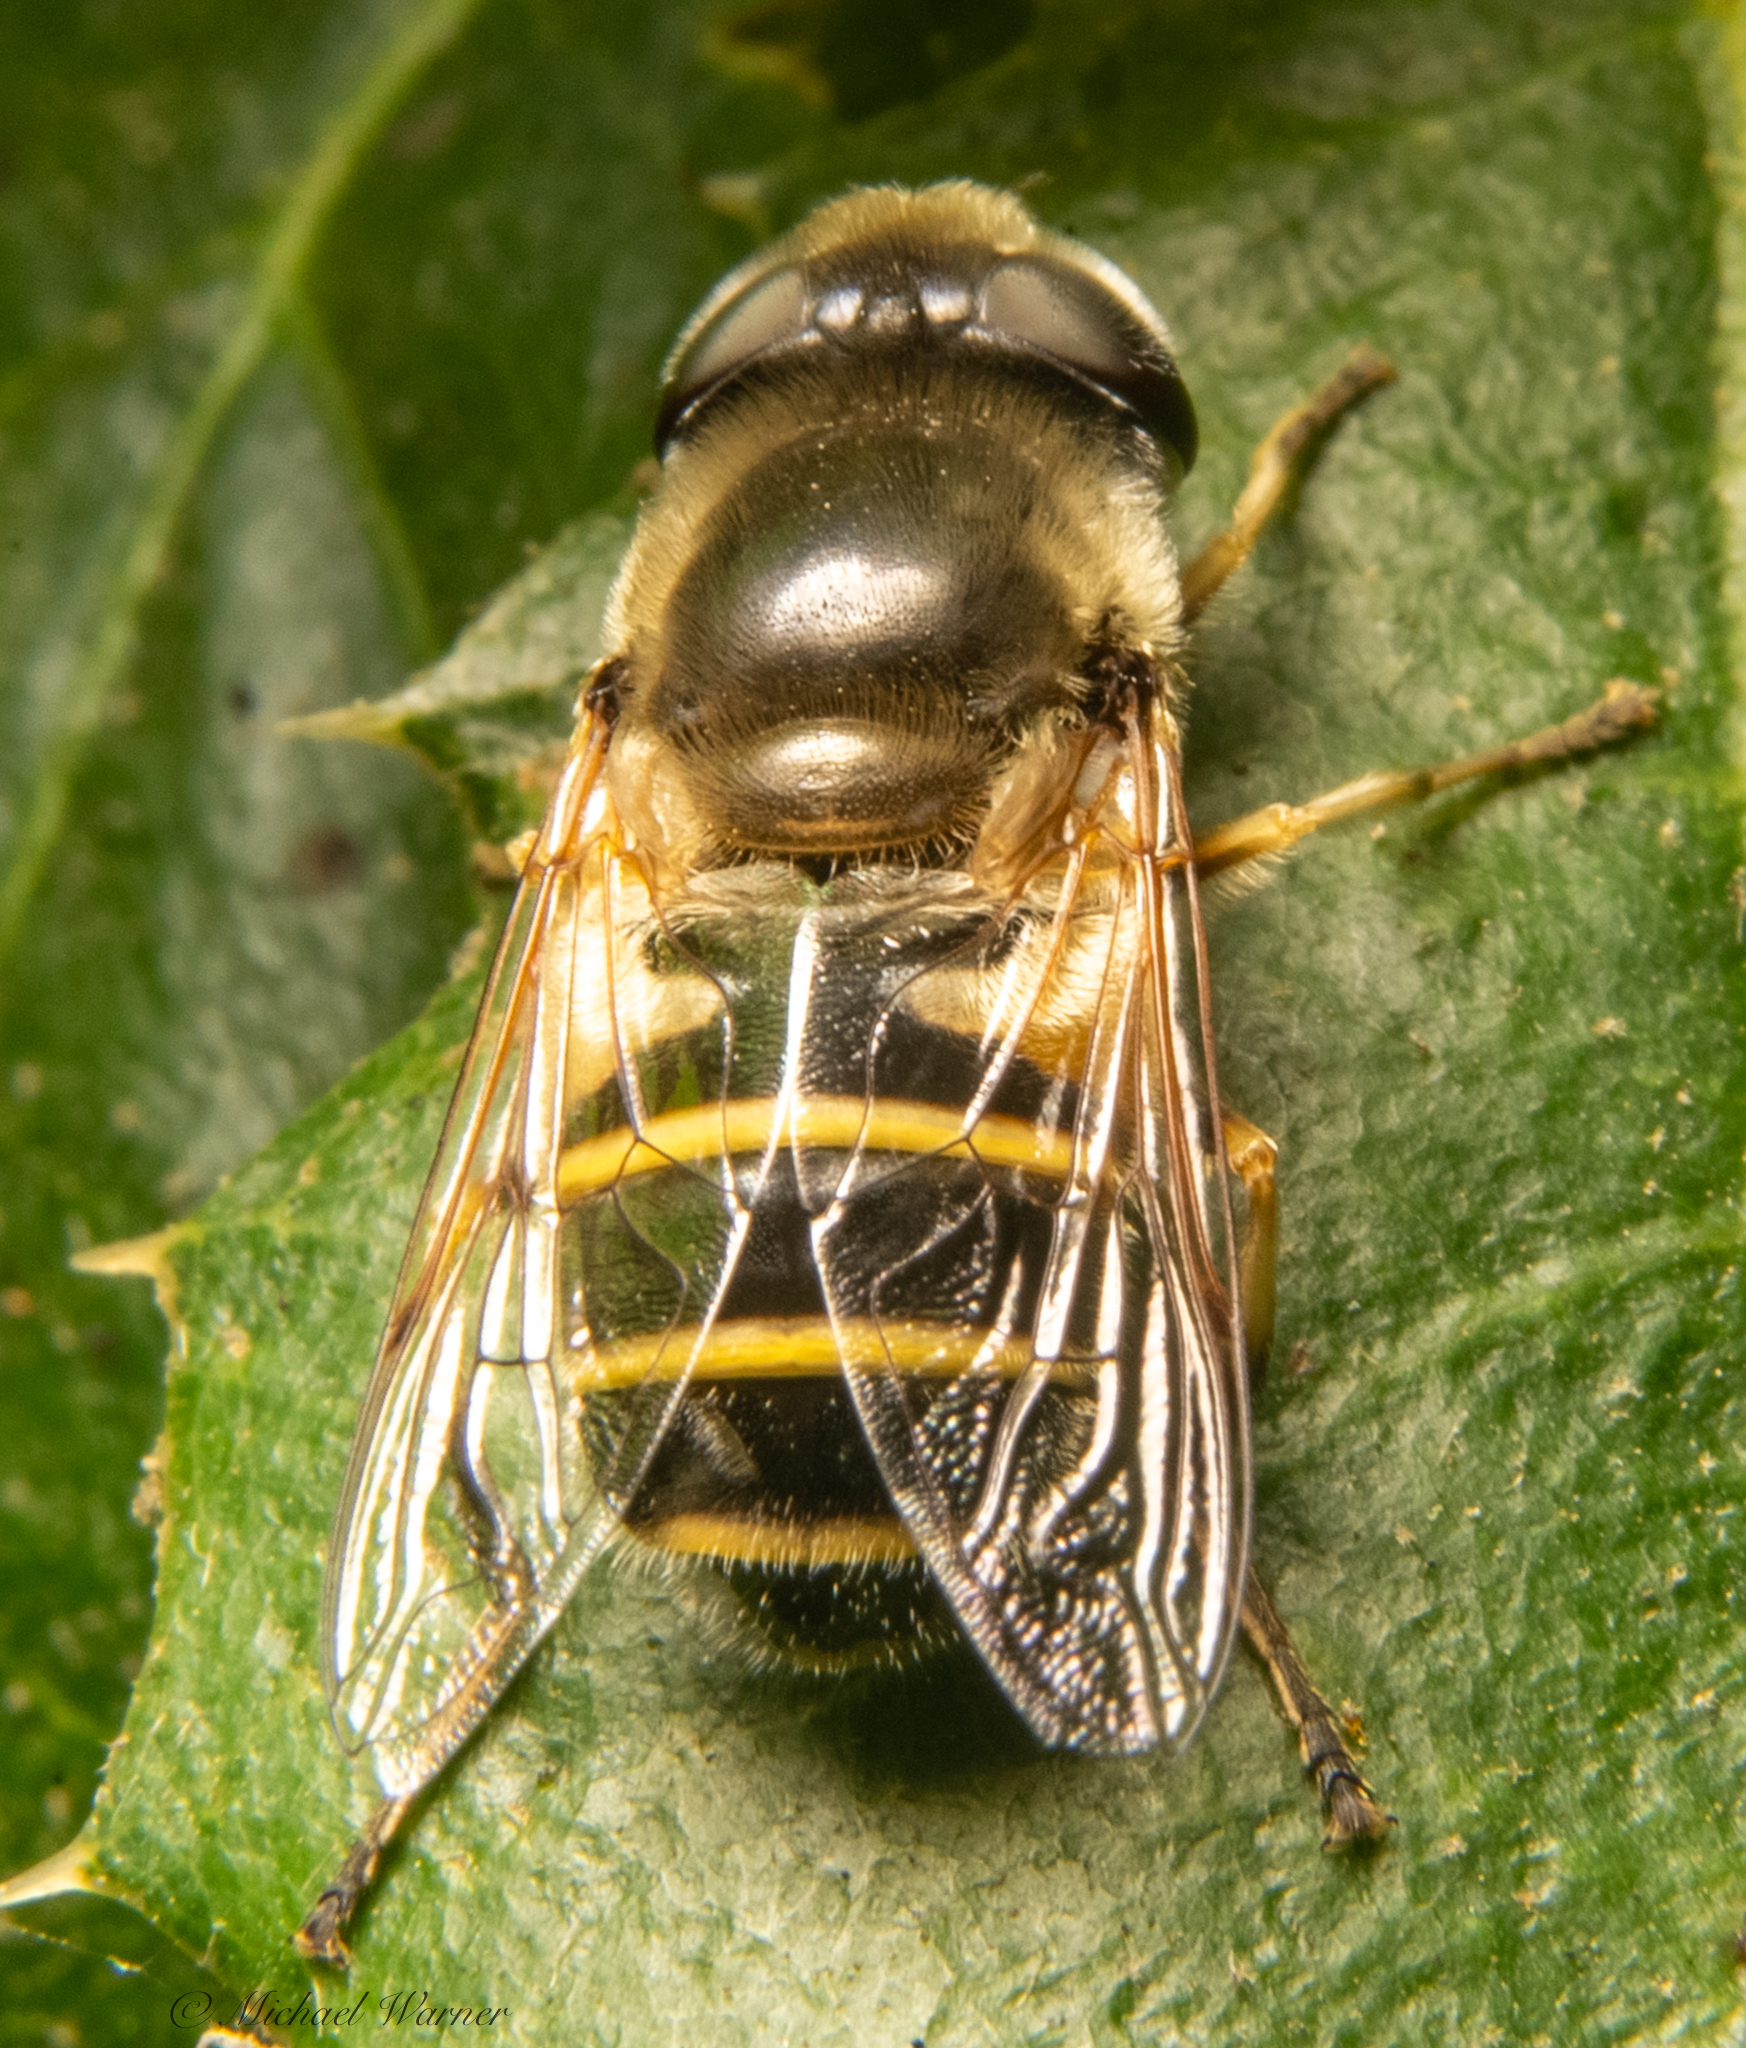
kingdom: Animalia
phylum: Arthropoda
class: Insecta
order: Diptera
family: Syrphidae
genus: Eristalis
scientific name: Eristalis hirta
